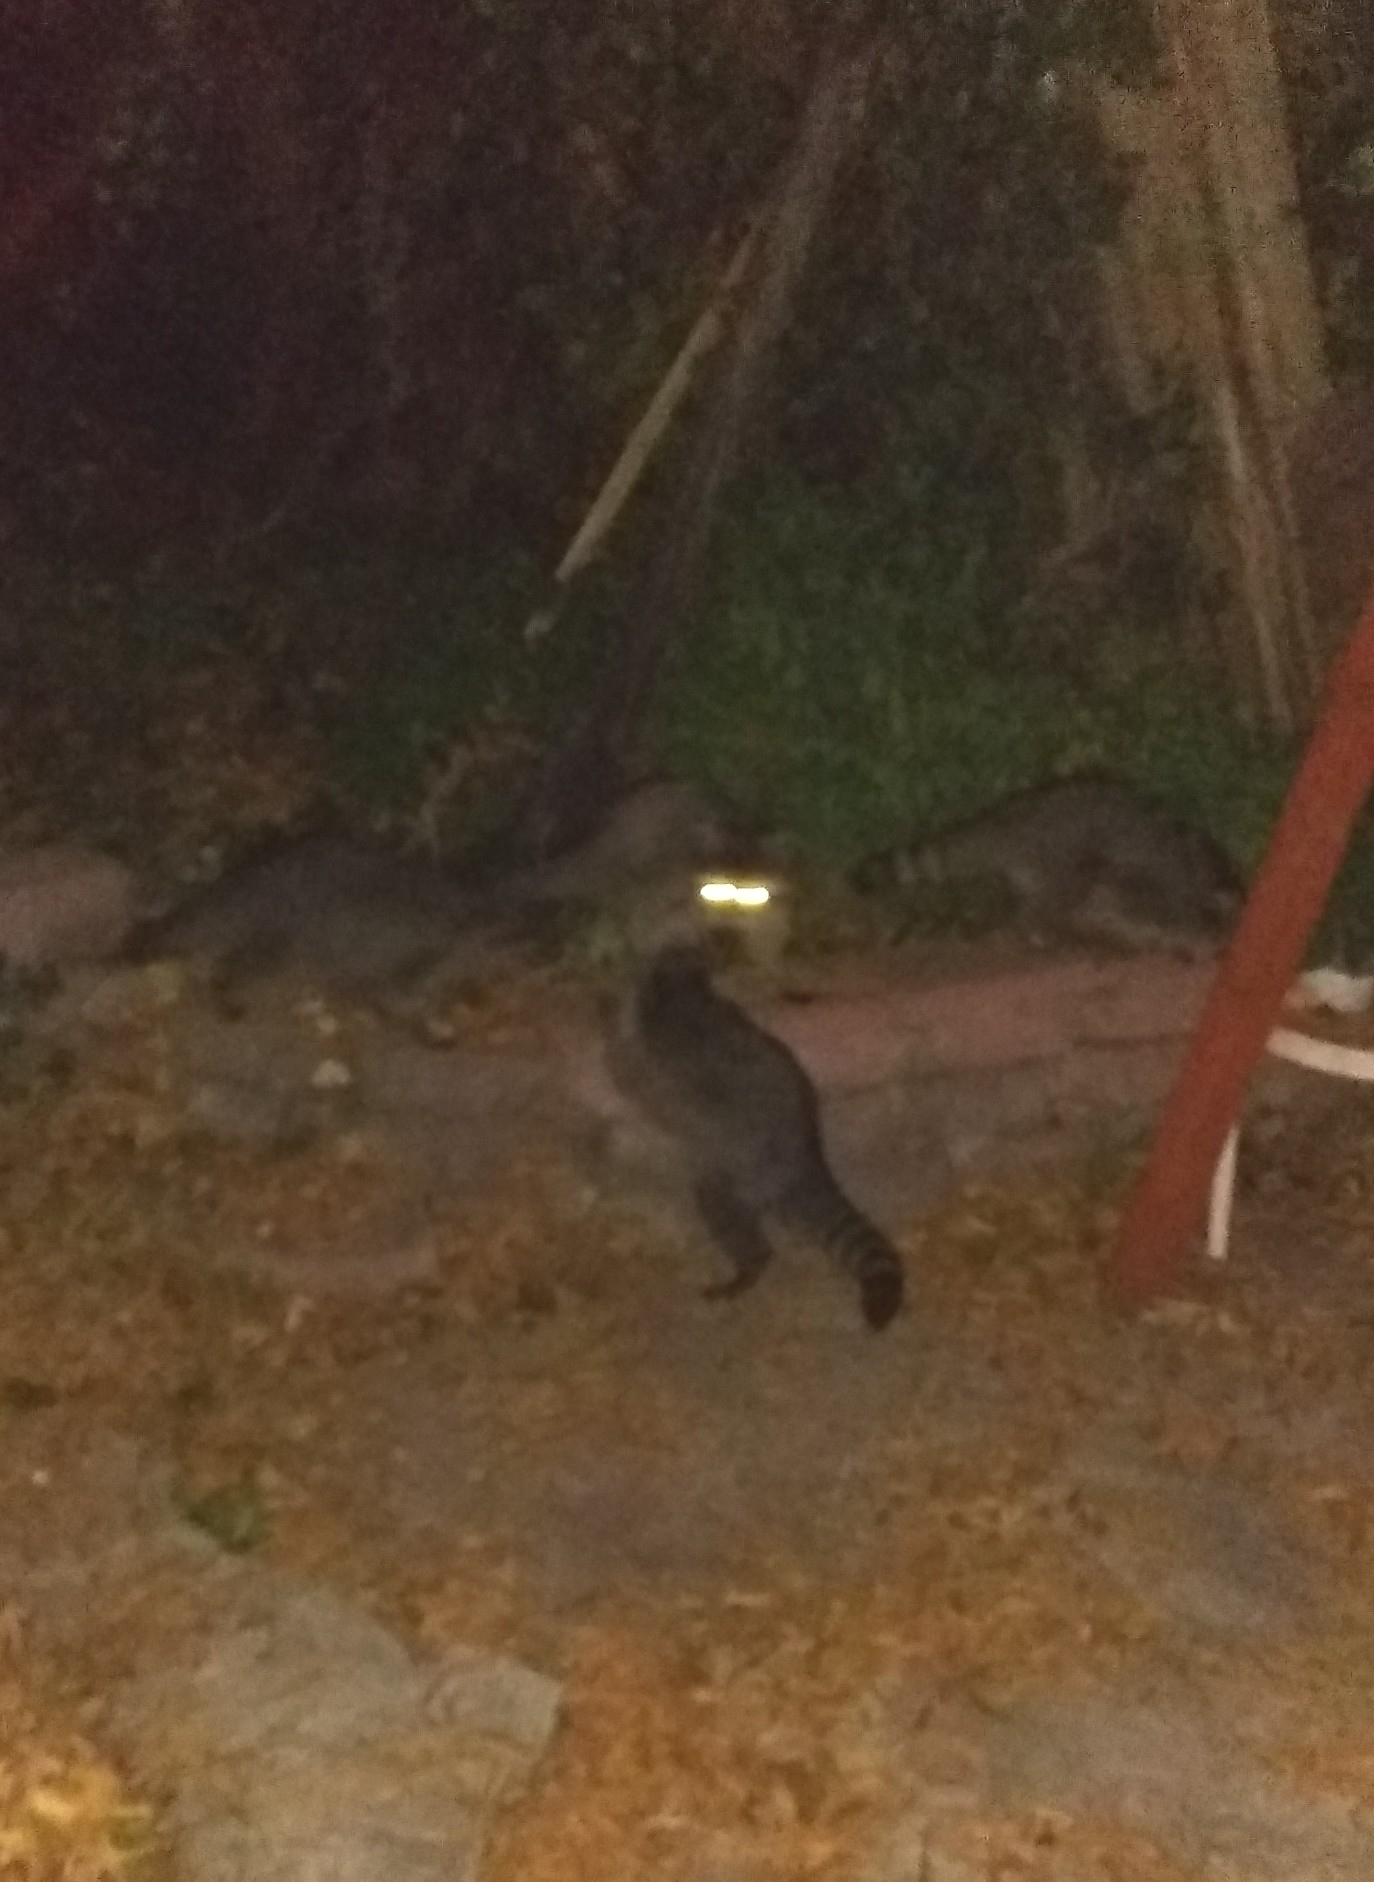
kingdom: Animalia
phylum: Chordata
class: Mammalia
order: Carnivora
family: Procyonidae
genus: Procyon
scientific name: Procyon lotor
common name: Raccoon
